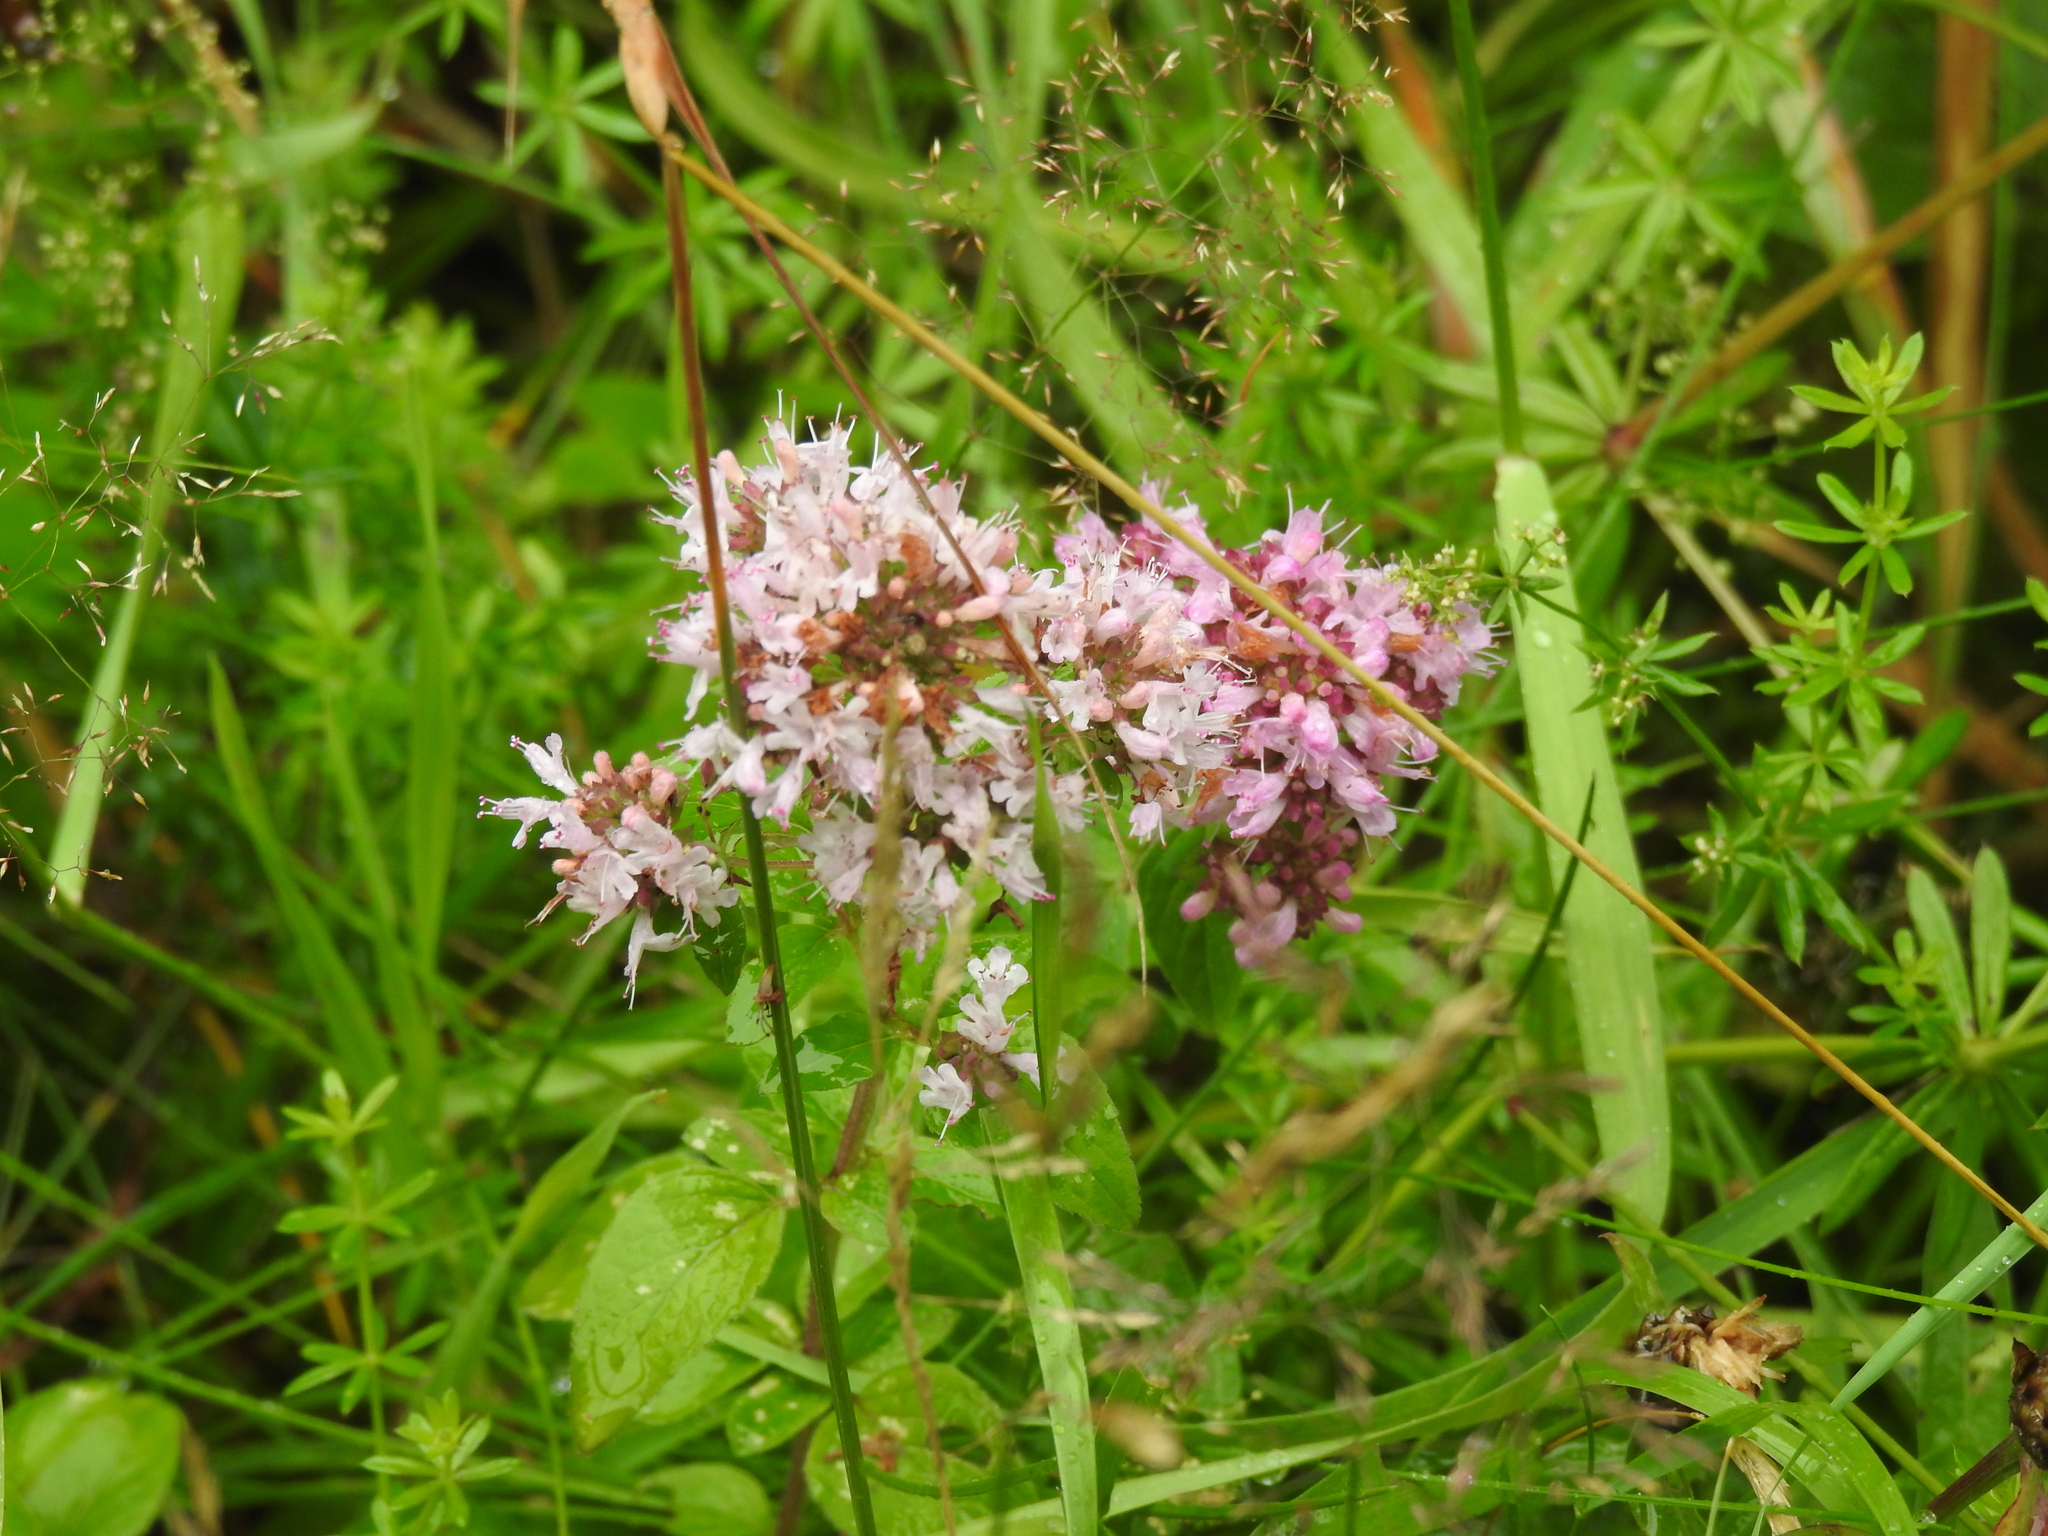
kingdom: Plantae
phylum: Tracheophyta
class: Magnoliopsida
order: Lamiales
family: Lamiaceae
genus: Origanum
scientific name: Origanum vulgare
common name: Wild marjoram
